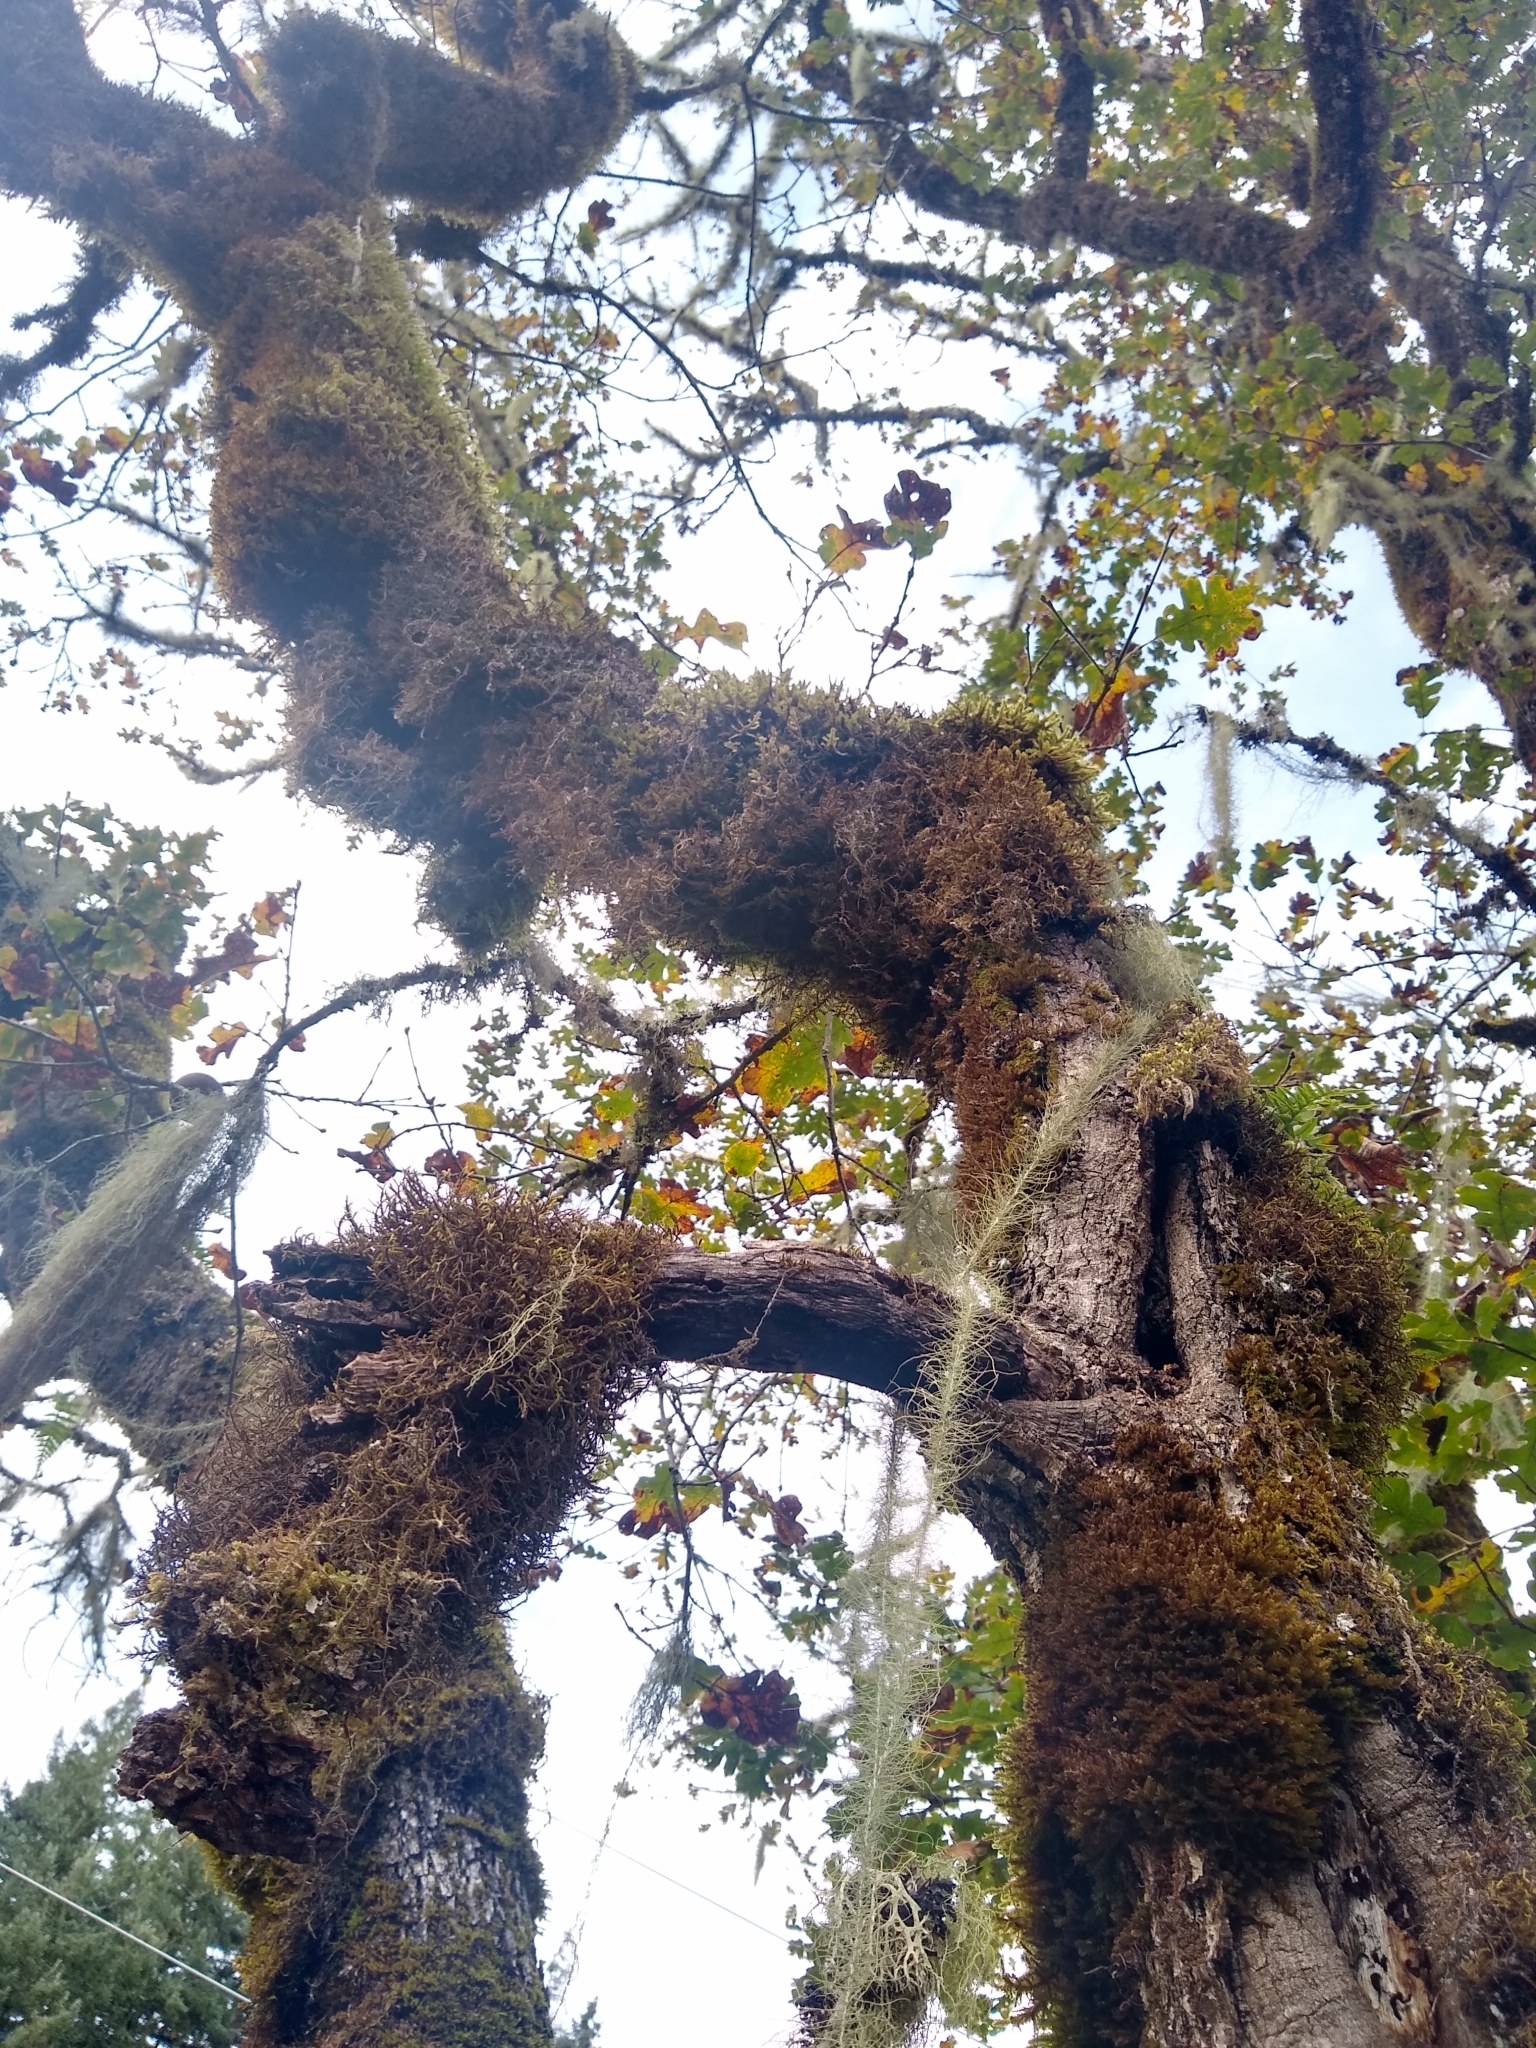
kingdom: Fungi
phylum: Ascomycota
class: Lecanoromycetes
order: Lecanorales
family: Parmeliaceae
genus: Dolichousnea
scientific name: Dolichousnea longissima
